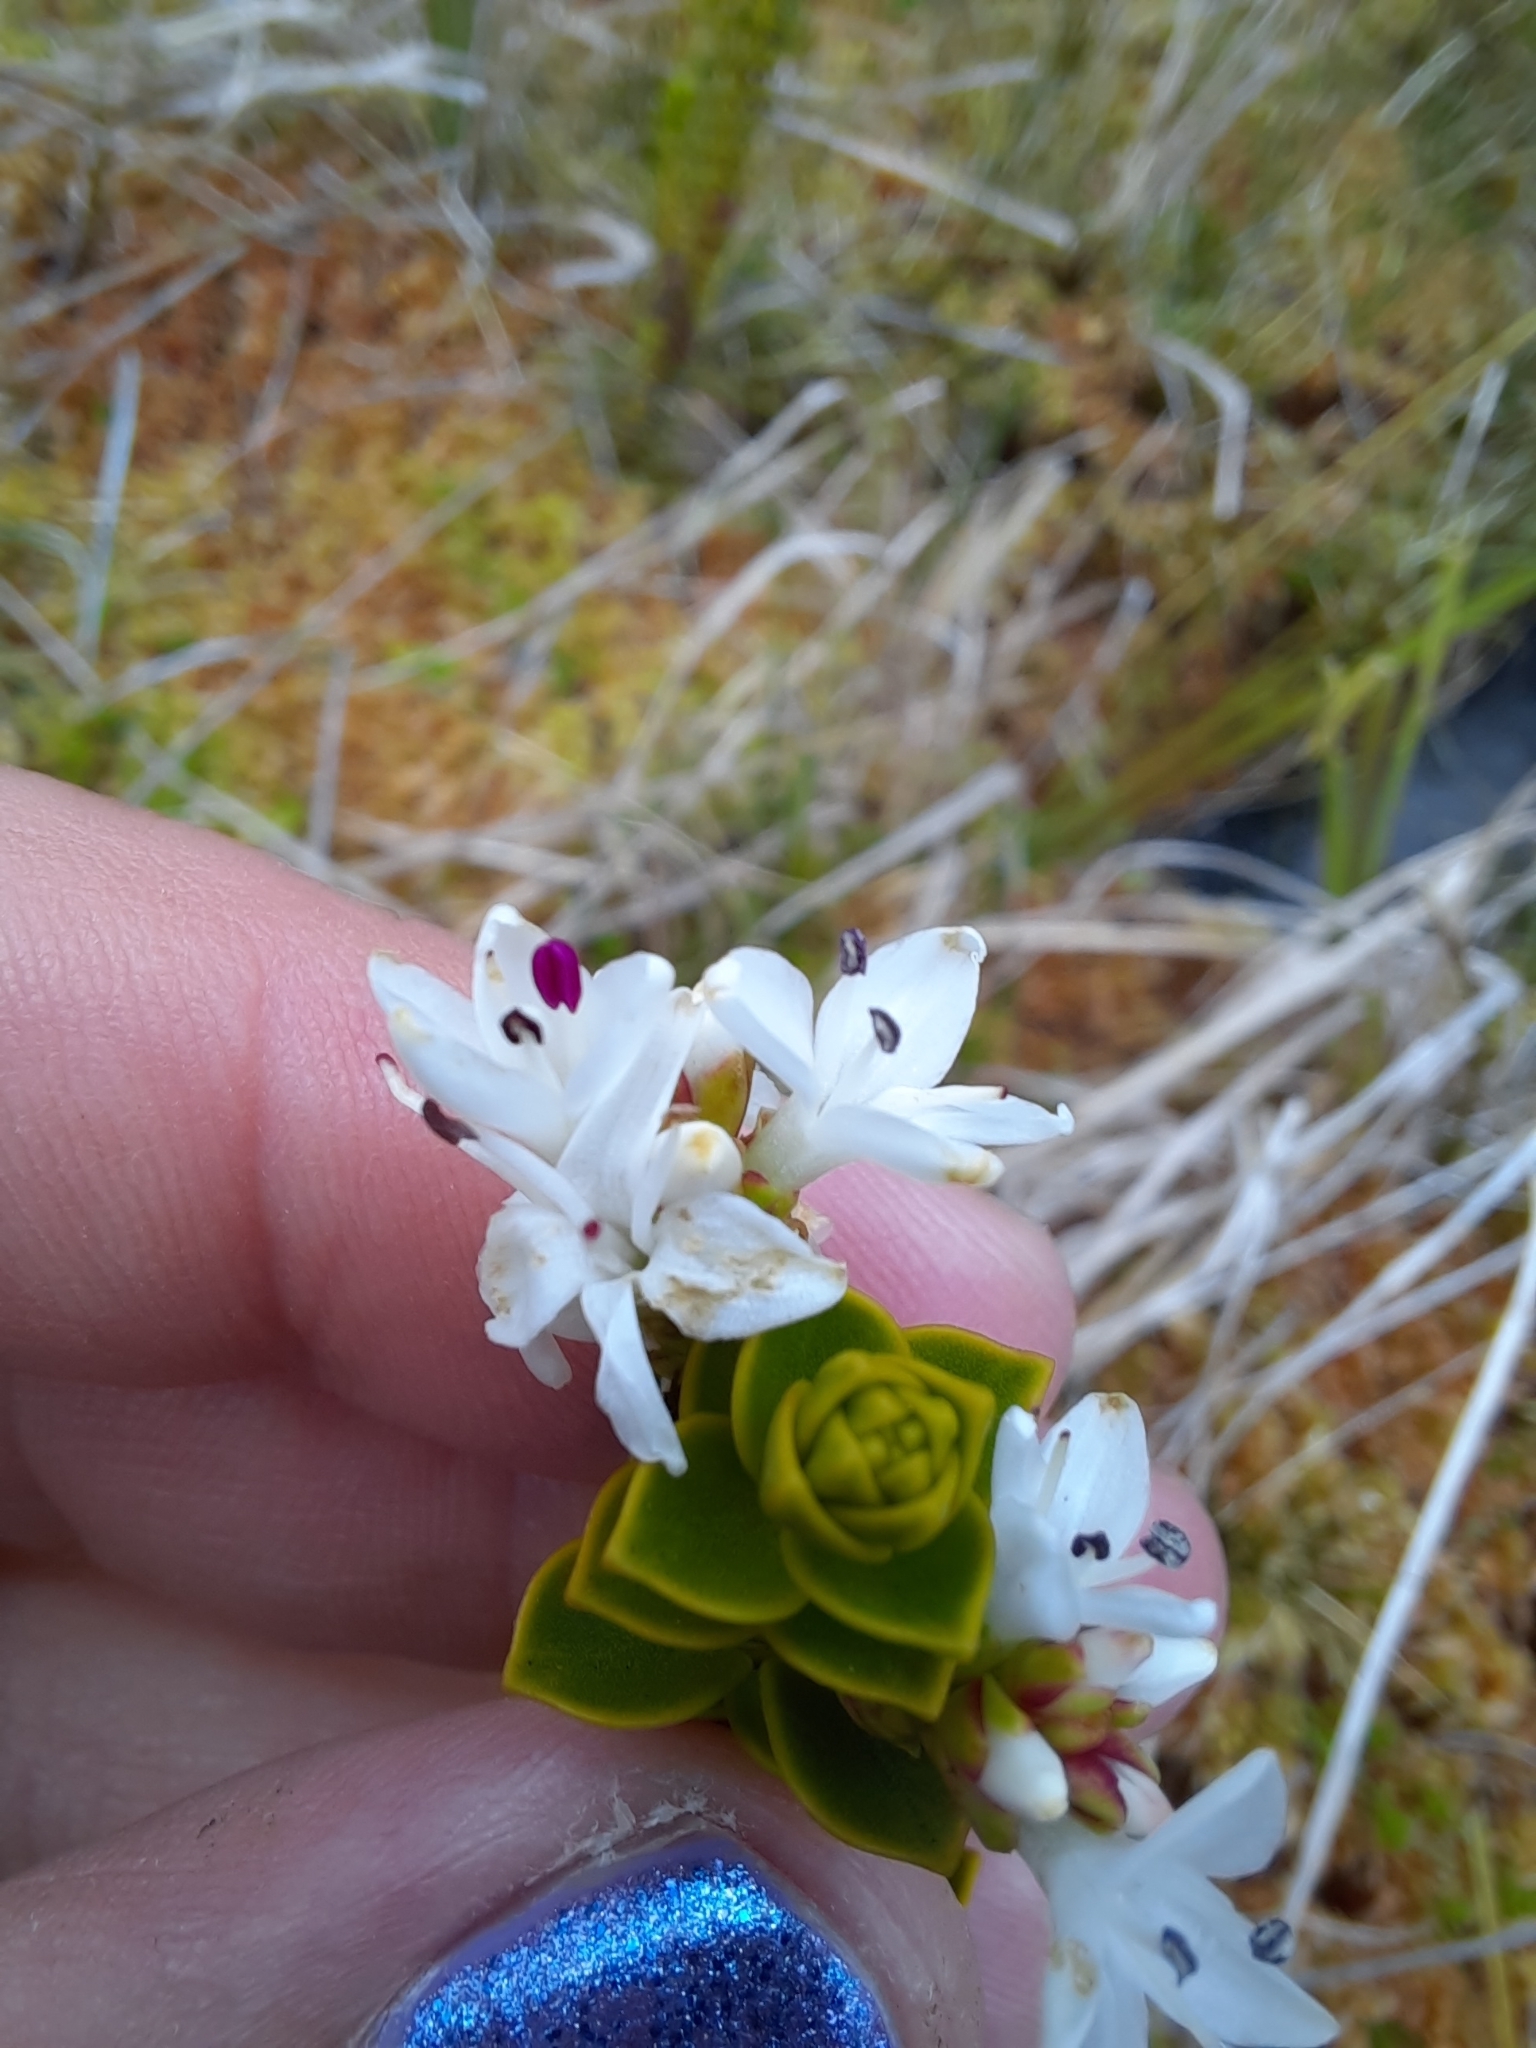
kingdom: Plantae
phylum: Tracheophyta
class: Magnoliopsida
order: Lamiales
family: Plantaginaceae
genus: Veronica
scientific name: Veronica odora
